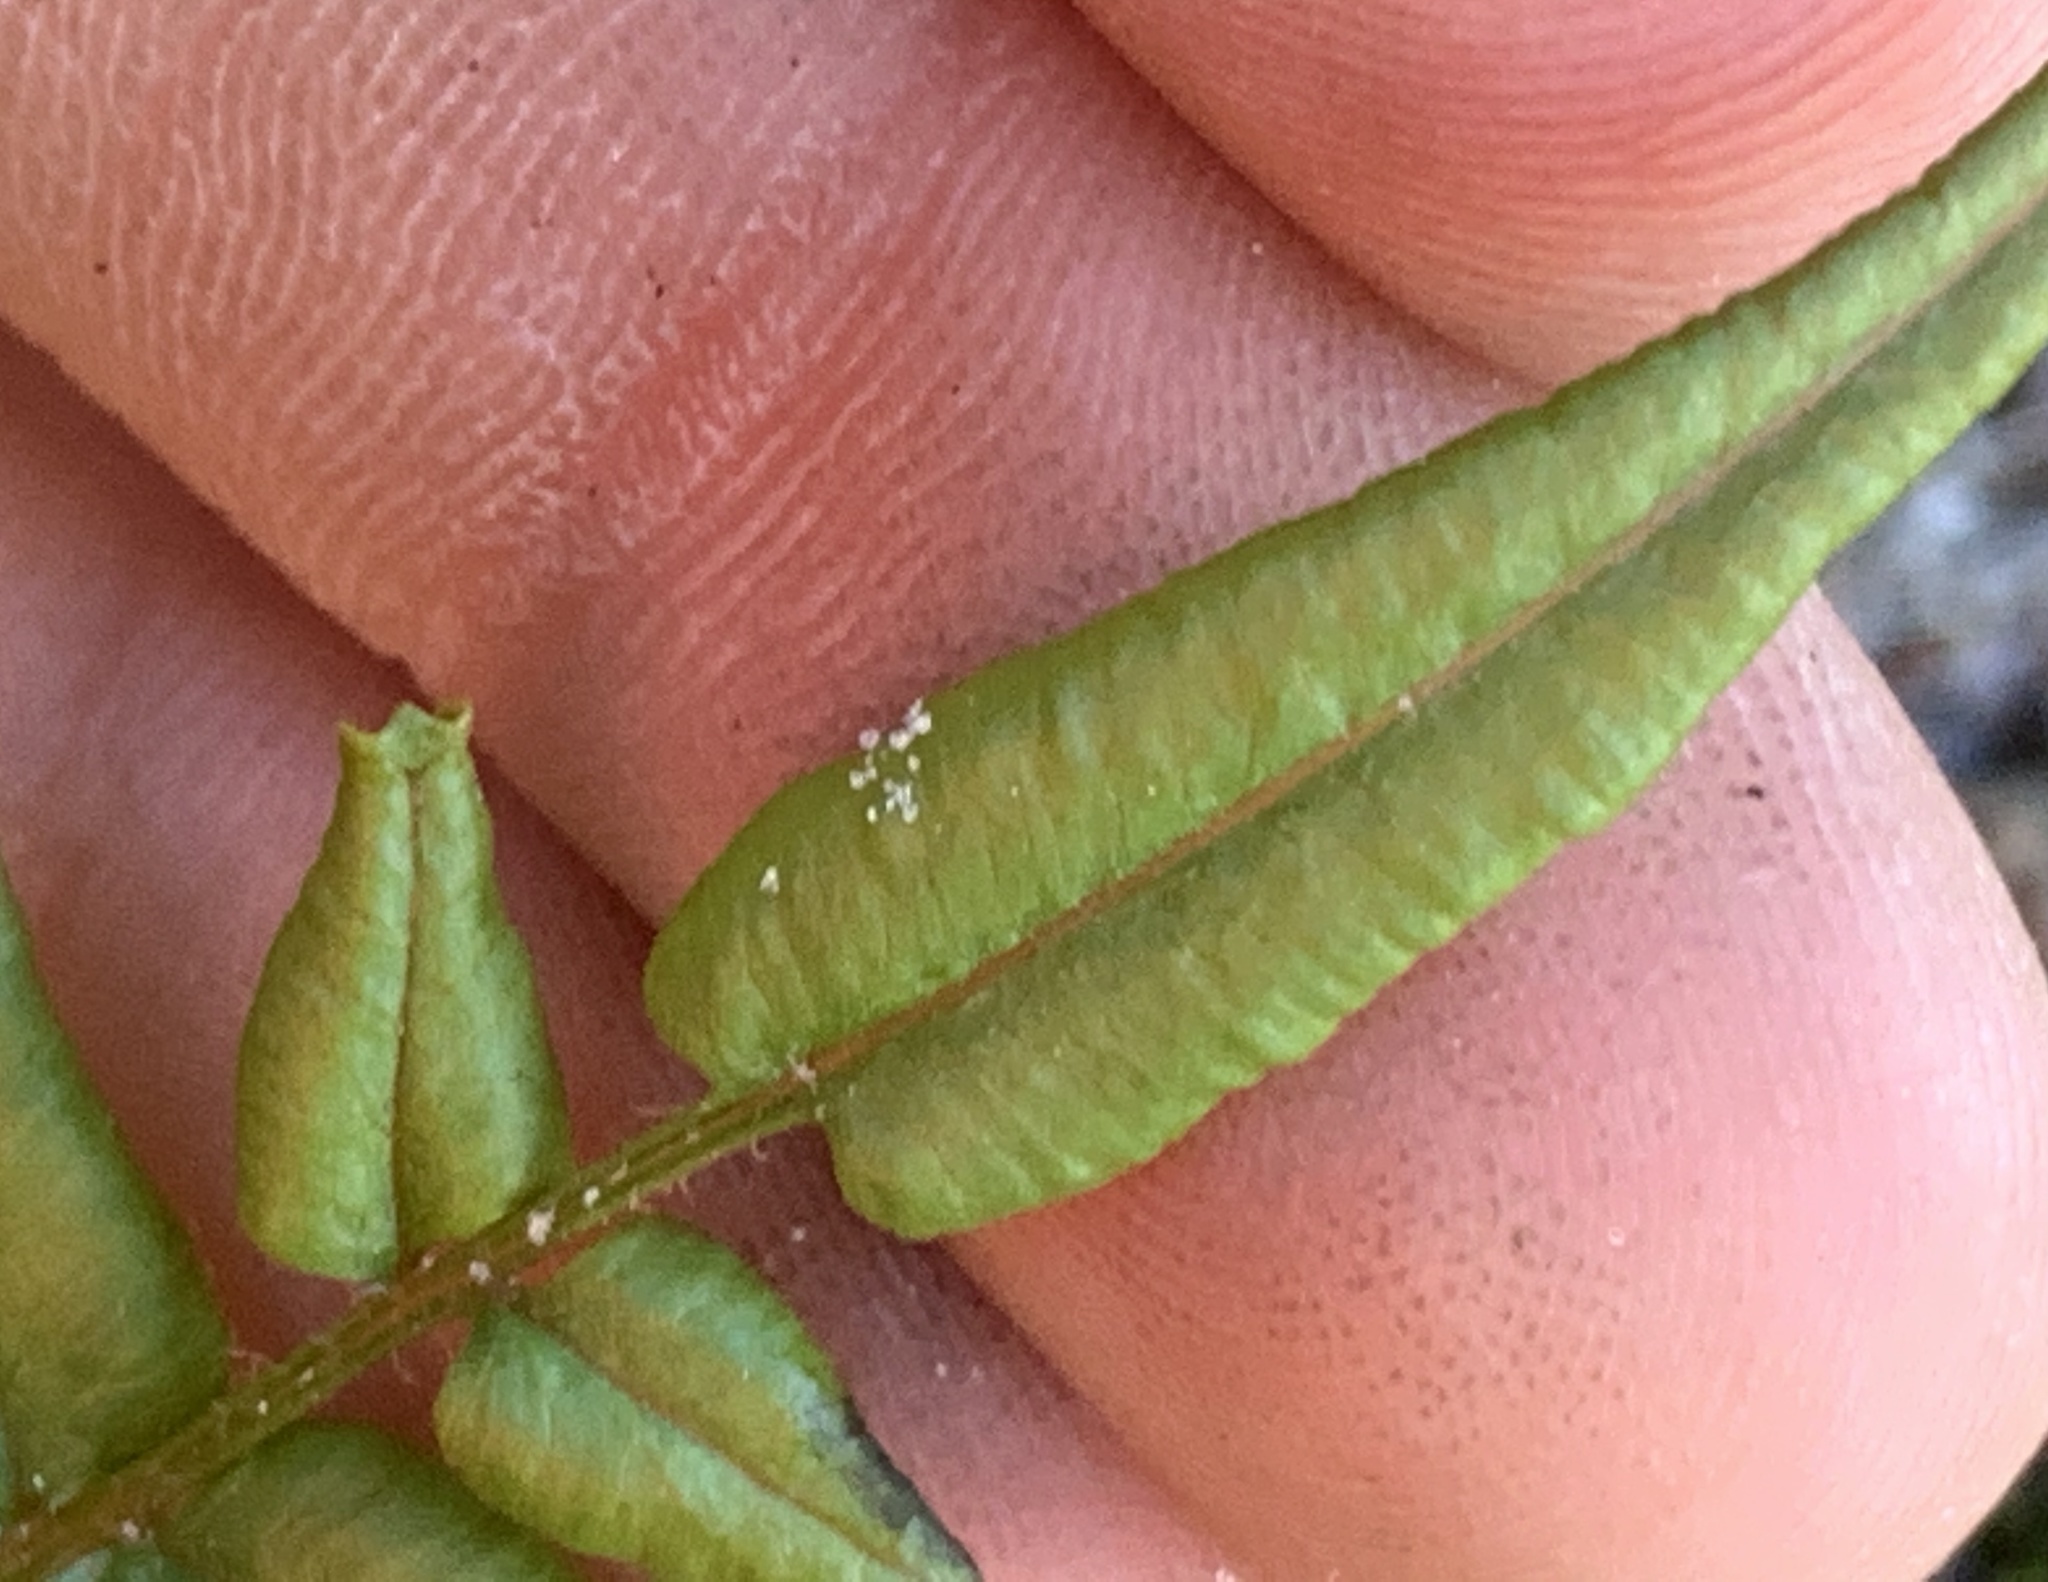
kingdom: Plantae
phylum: Tracheophyta
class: Polypodiopsida
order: Polypodiales
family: Pteridaceae
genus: Pteris
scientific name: Pteris vittata
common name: Ladder brake
